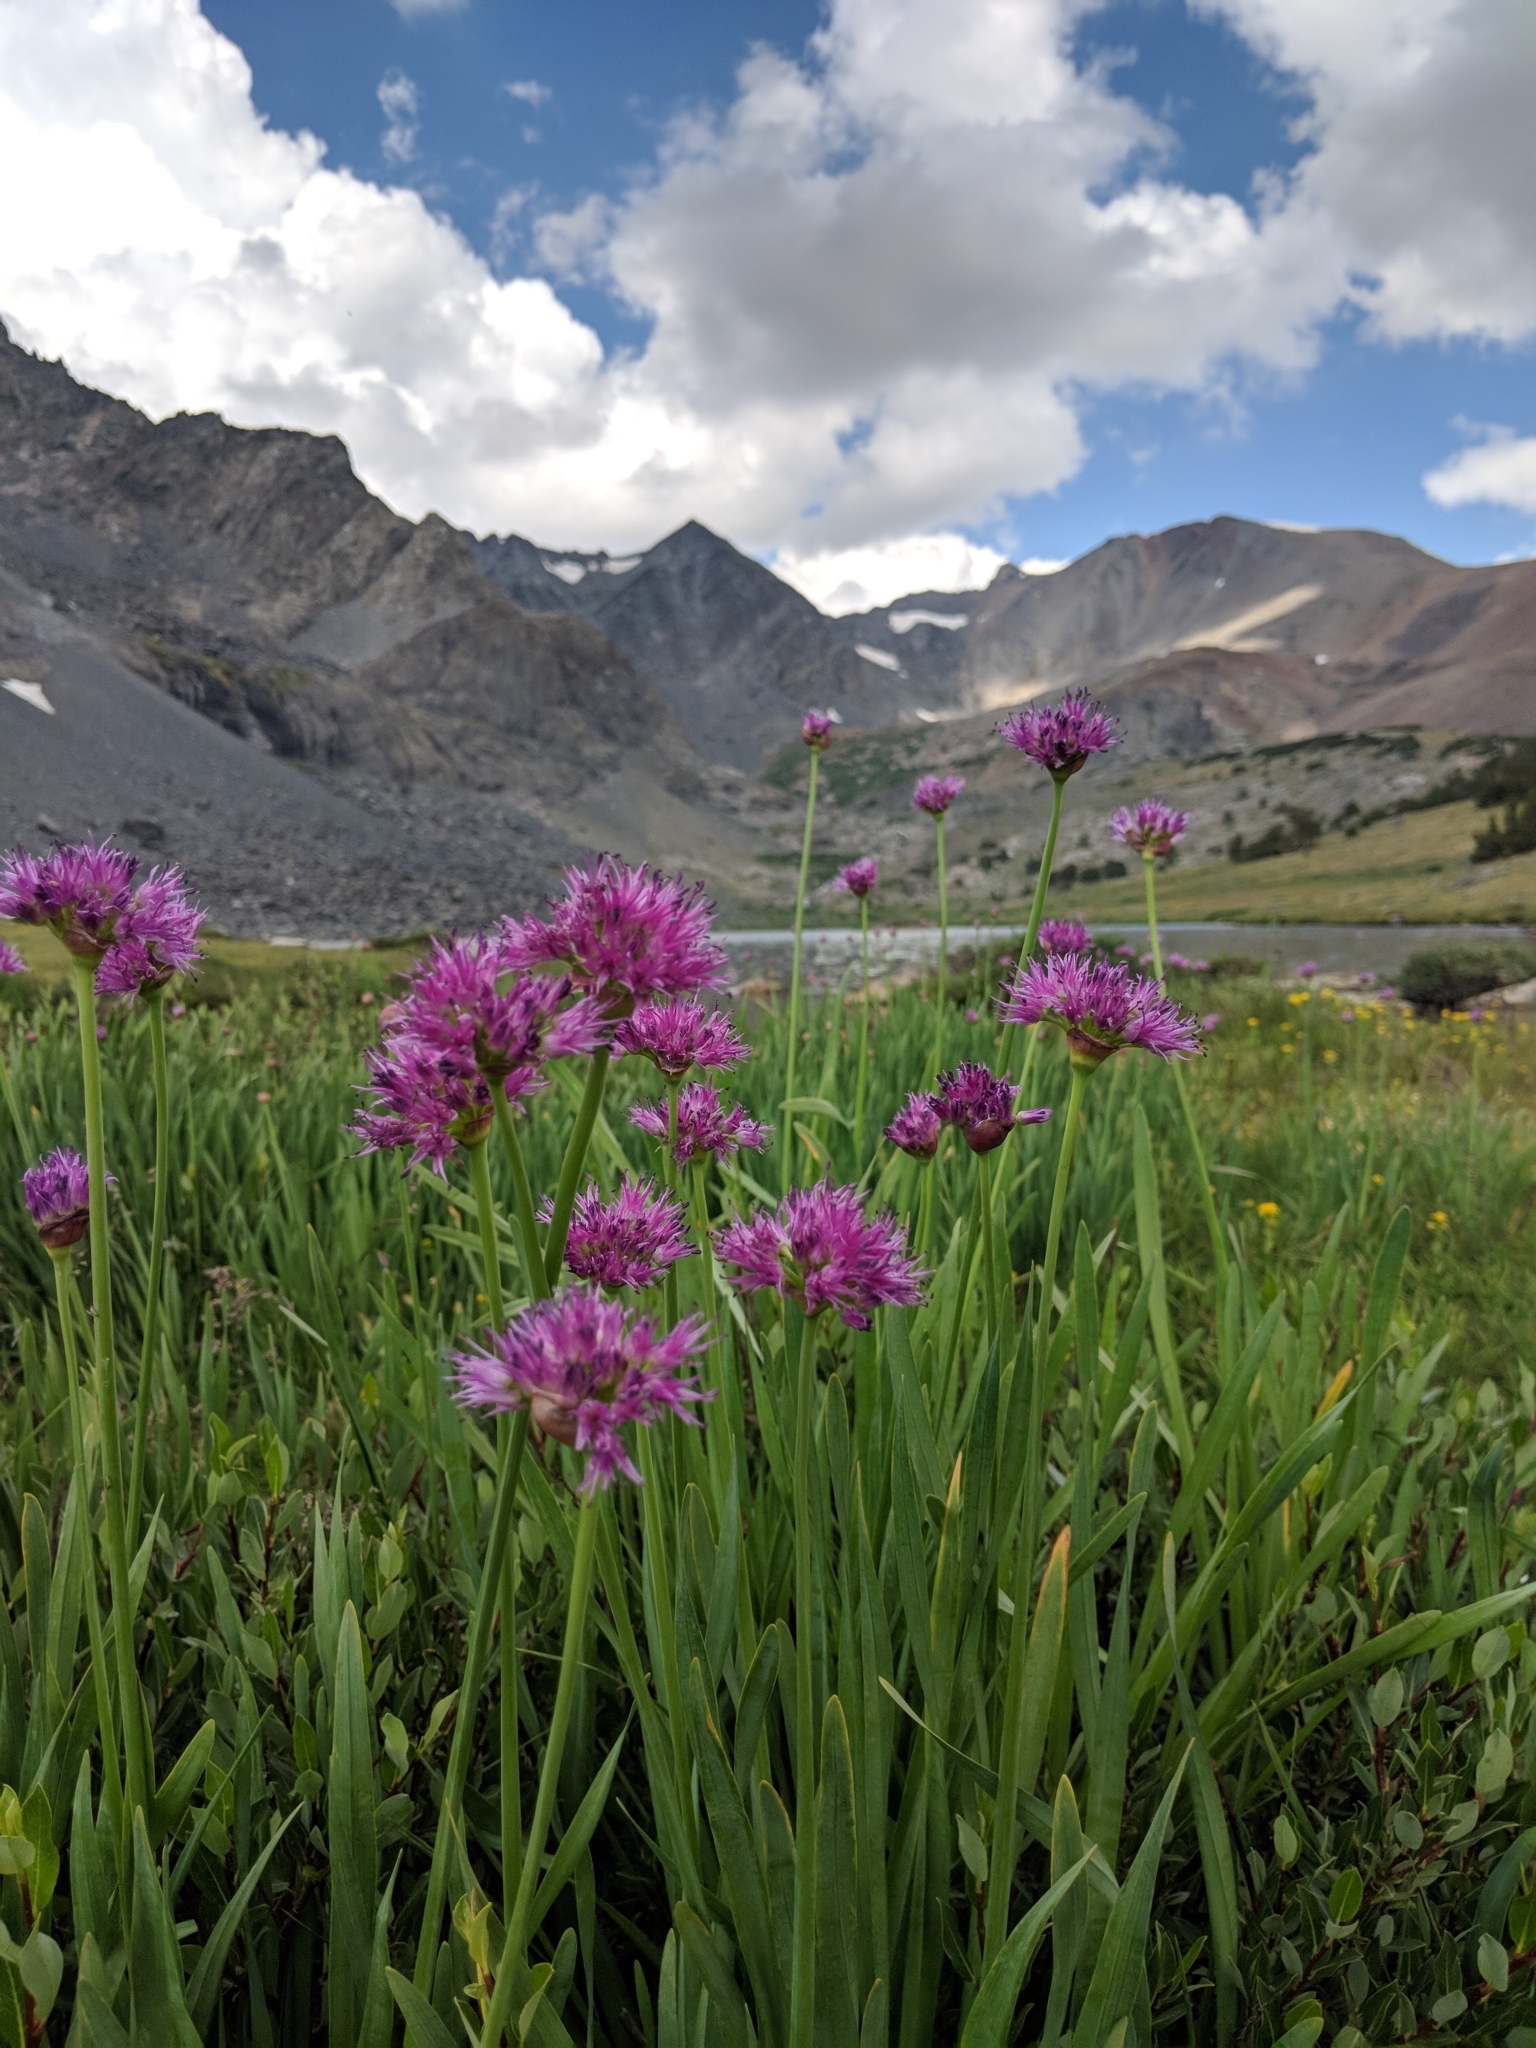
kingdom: Plantae
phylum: Tracheophyta
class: Liliopsida
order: Asparagales
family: Amaryllidaceae
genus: Allium
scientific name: Allium validum
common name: Pacific mountain onion
